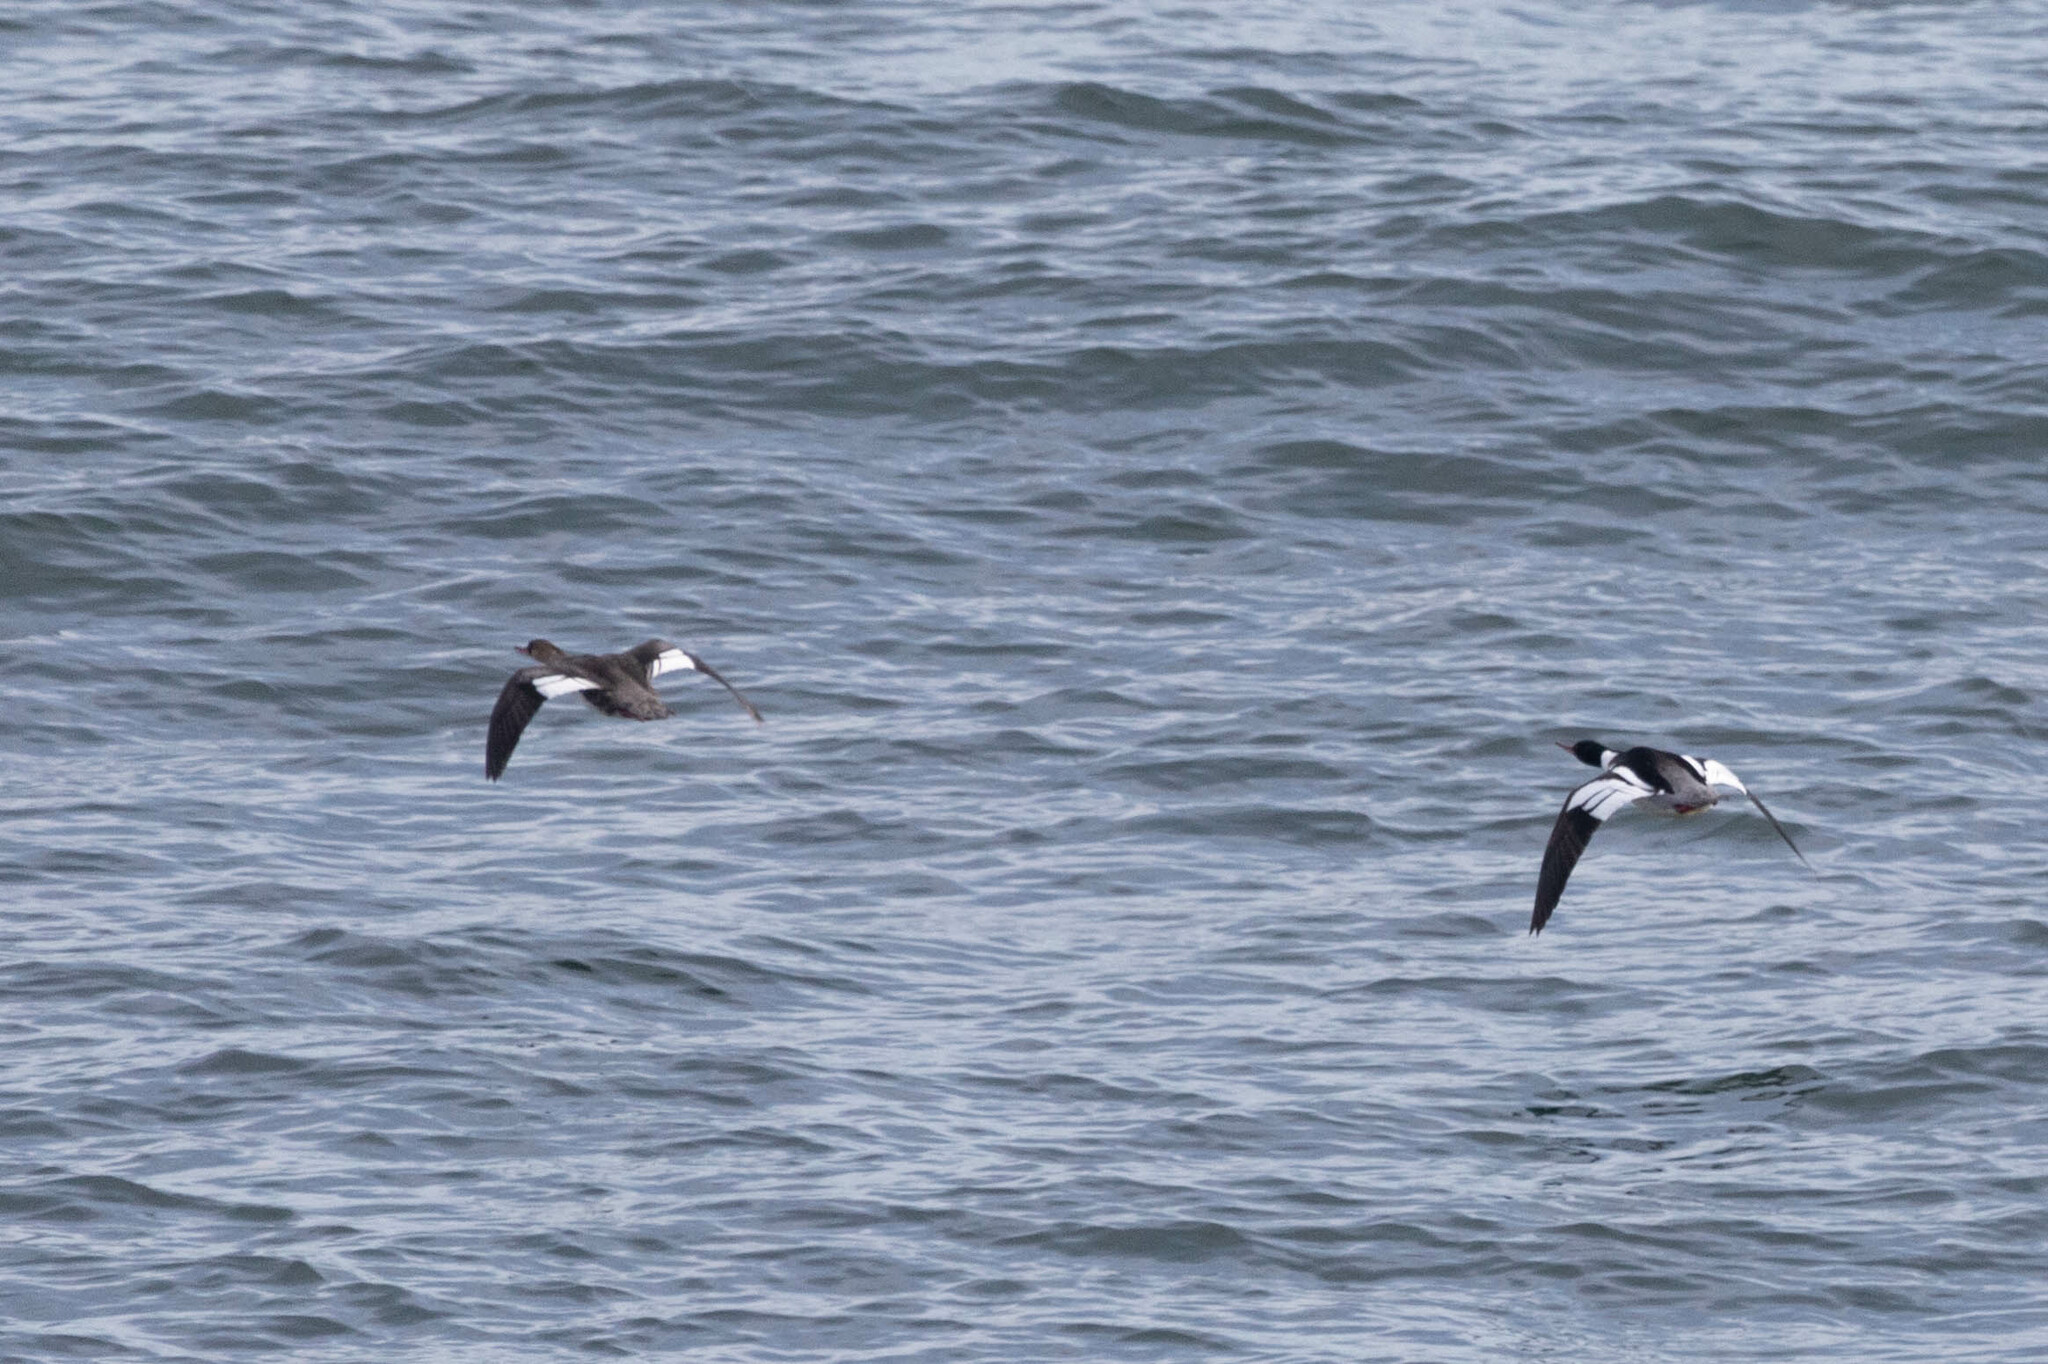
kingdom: Animalia
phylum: Chordata
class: Aves
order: Anseriformes
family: Anatidae
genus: Mergus
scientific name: Mergus serrator
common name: Red-breasted merganser
